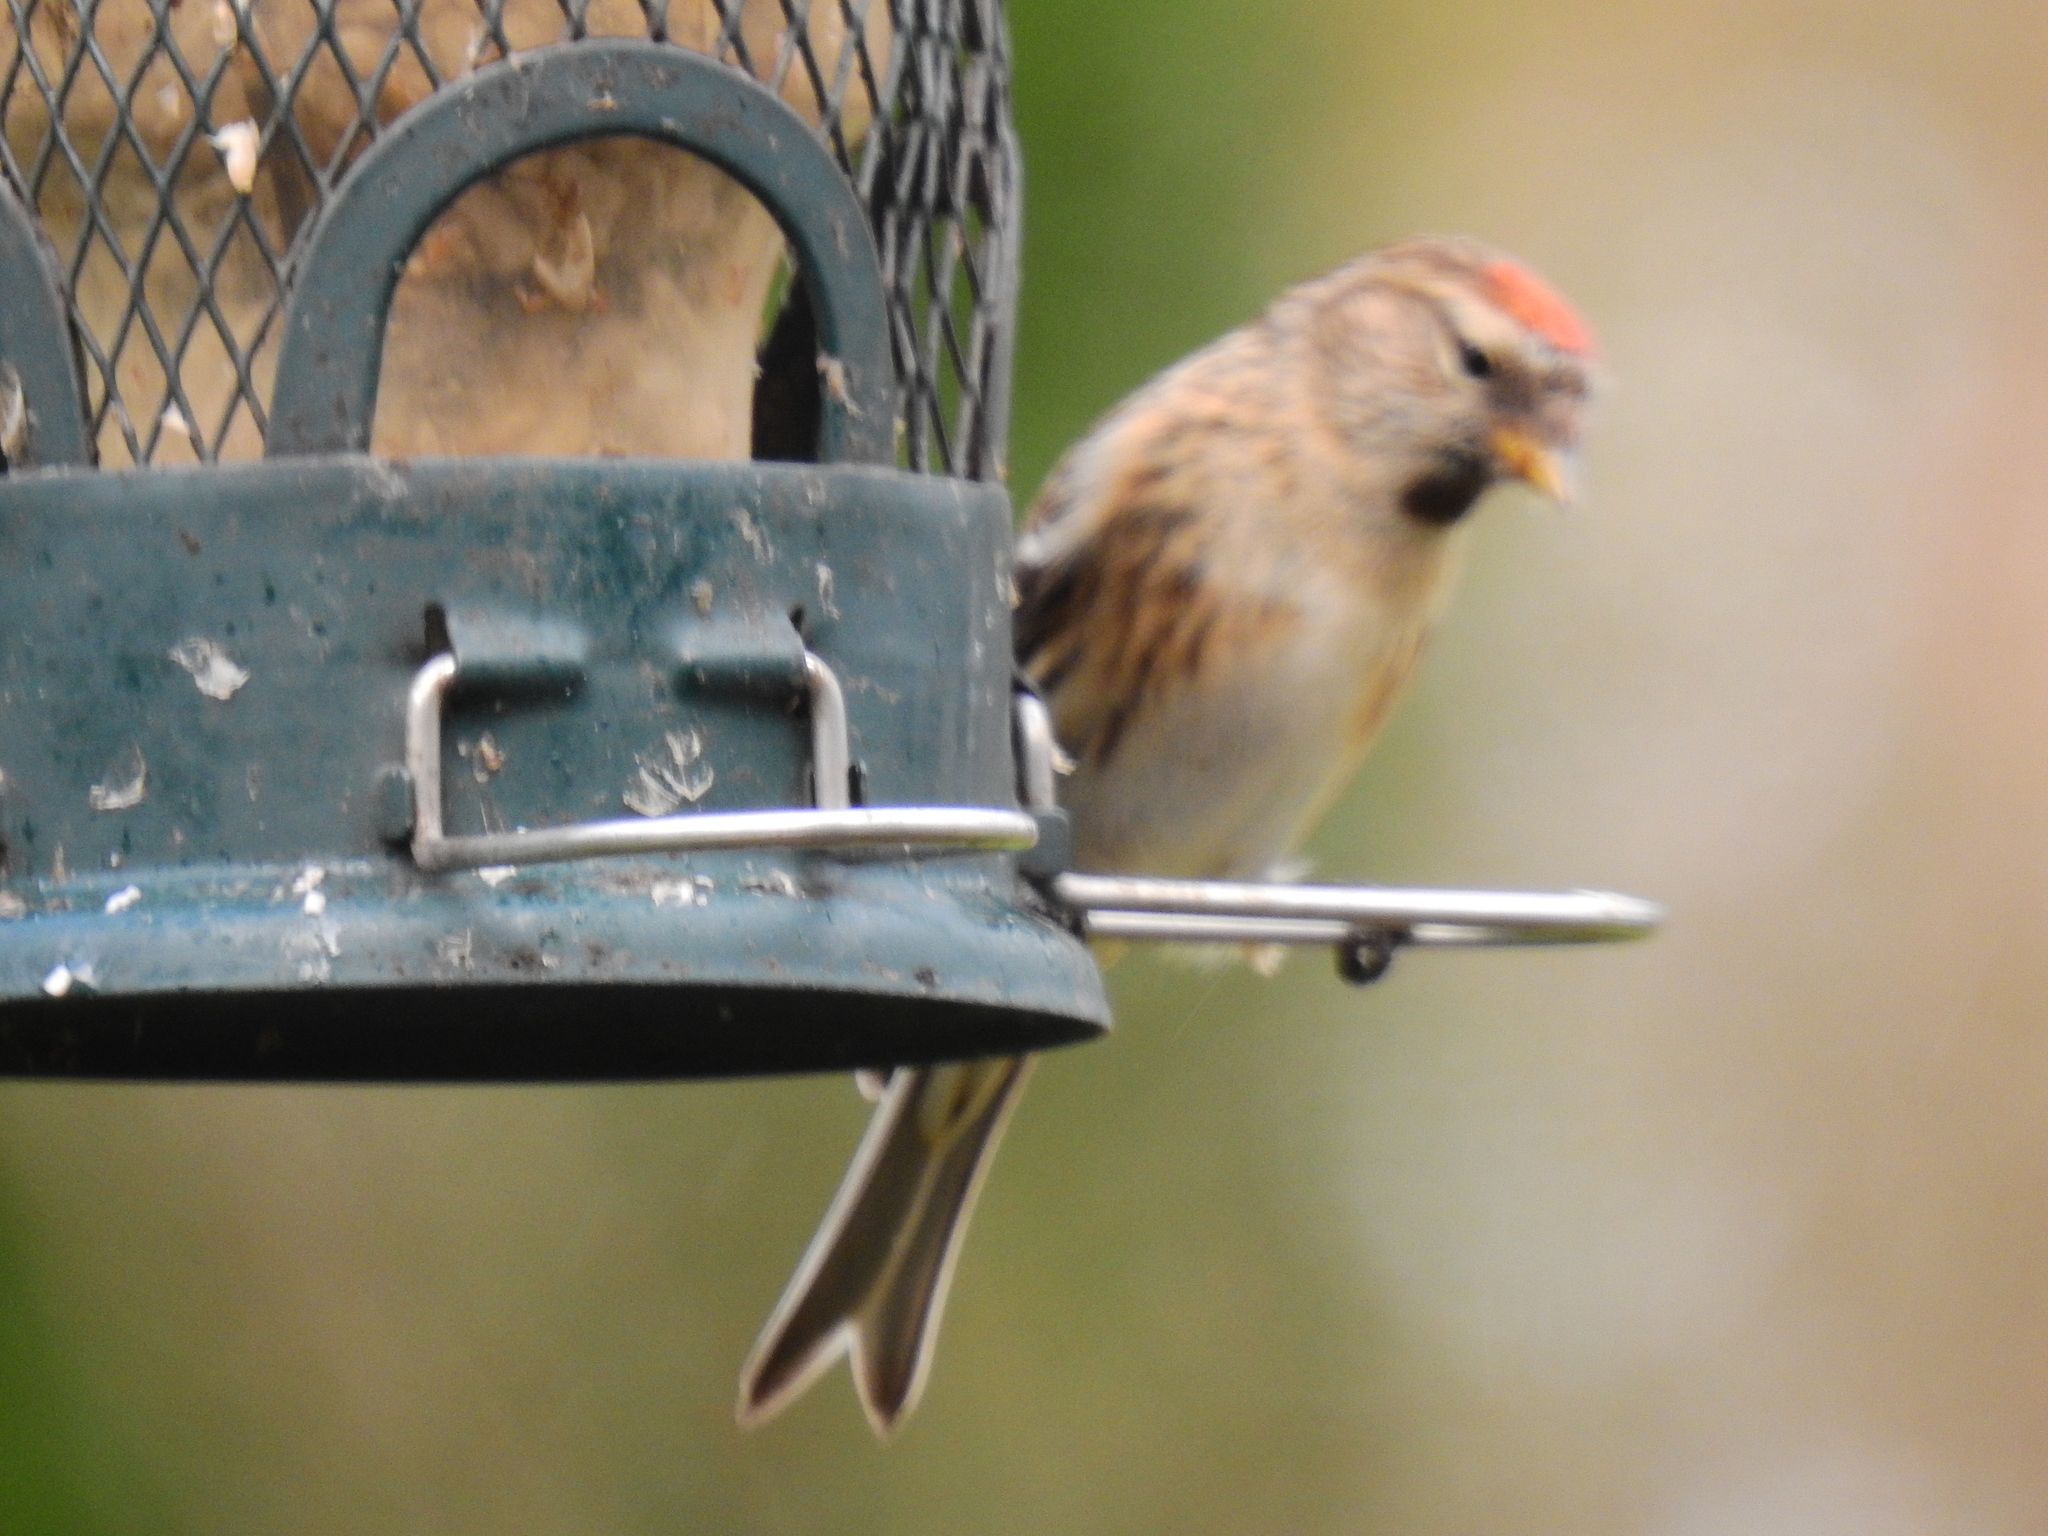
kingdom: Animalia
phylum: Chordata
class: Aves
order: Passeriformes
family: Fringillidae
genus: Acanthis
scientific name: Acanthis flammea
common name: Common redpoll
